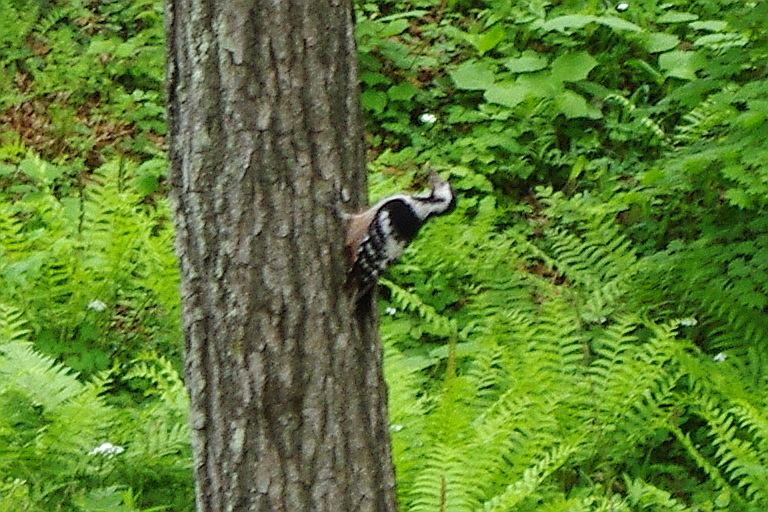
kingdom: Animalia
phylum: Chordata
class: Aves
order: Piciformes
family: Picidae
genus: Dendrocopos
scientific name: Dendrocopos leucotos
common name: White-backed woodpecker
